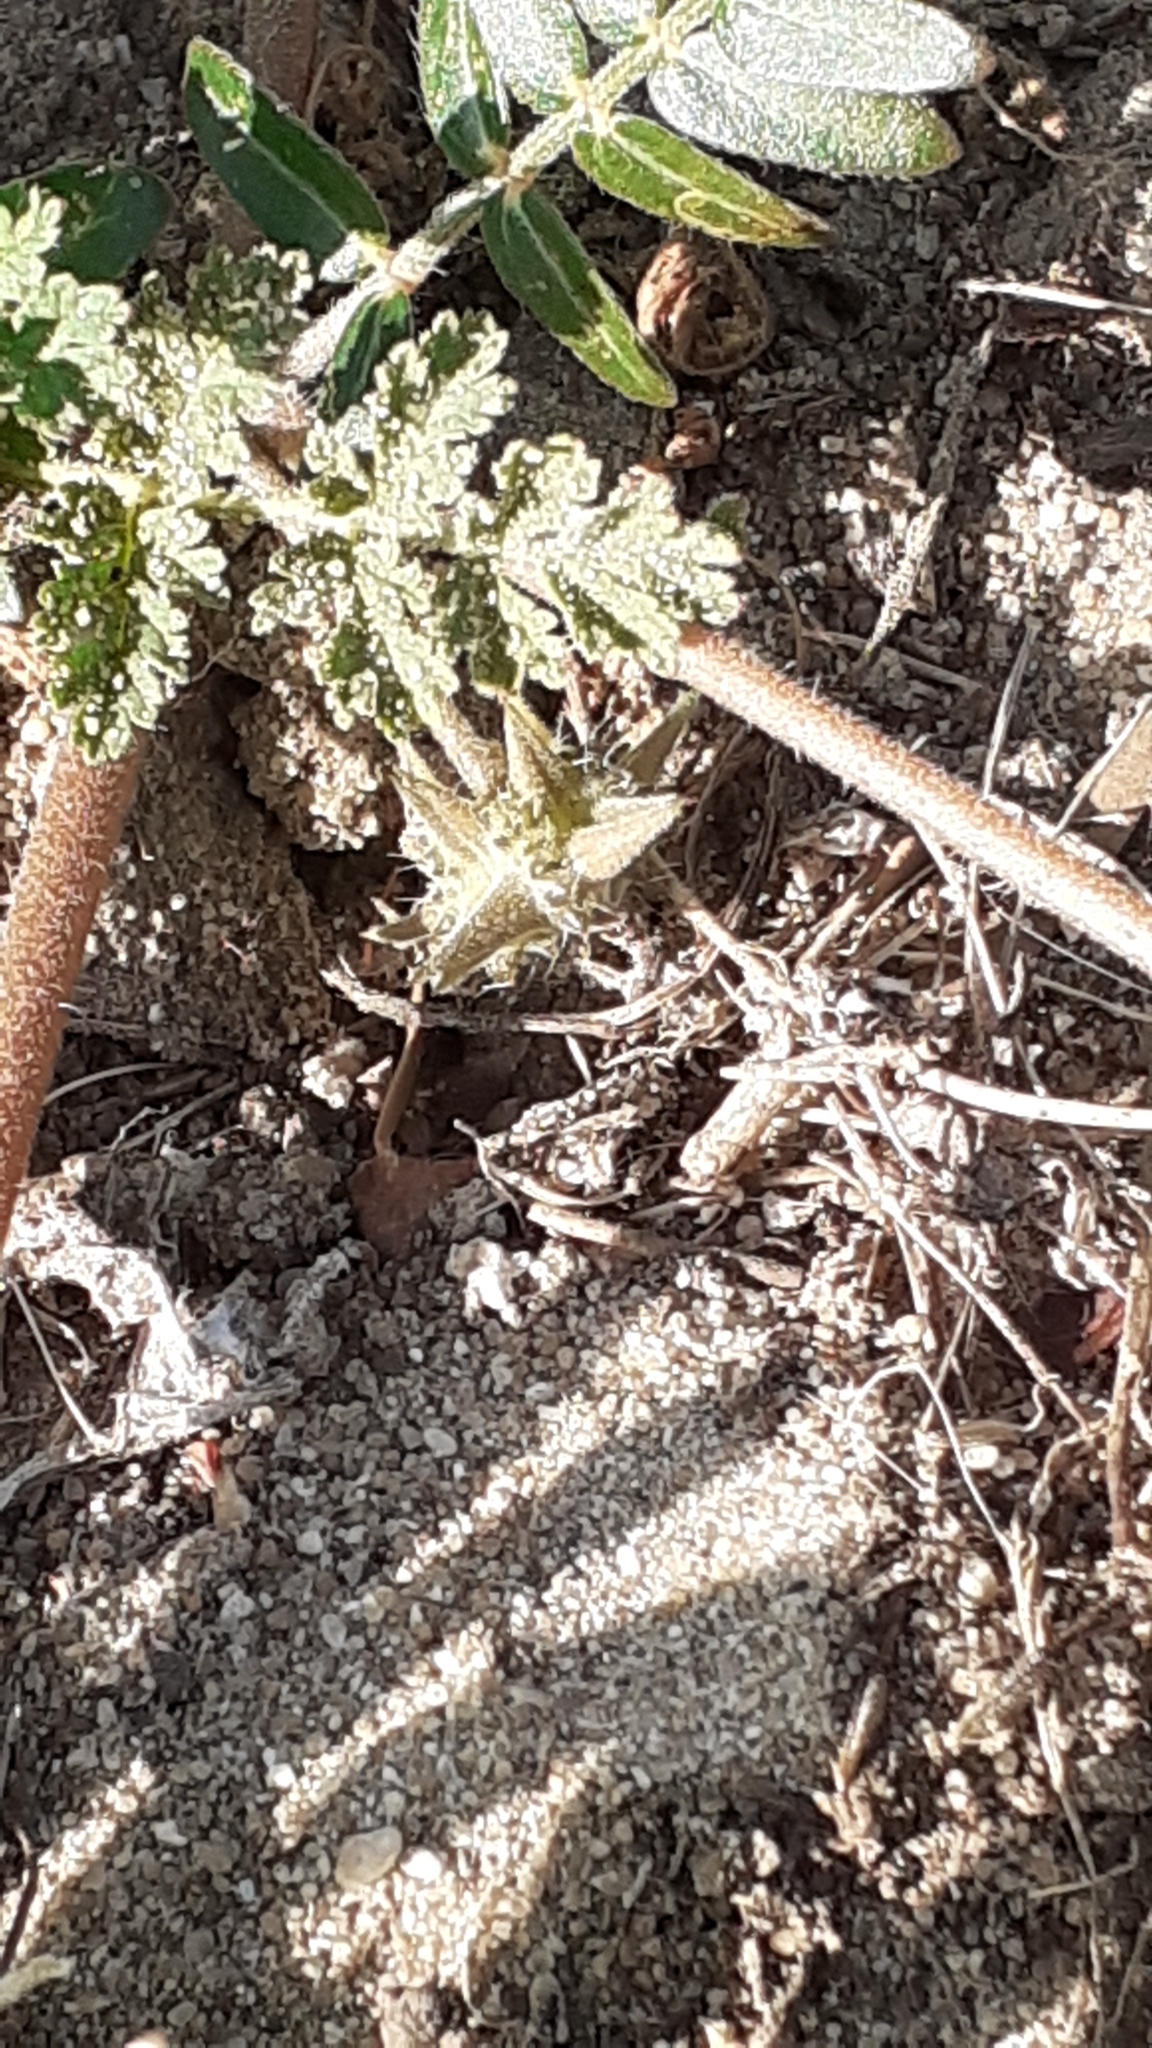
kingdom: Plantae
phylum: Tracheophyta
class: Magnoliopsida
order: Zygophyllales
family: Zygophyllaceae
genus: Tribulus
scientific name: Tribulus terrestris
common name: Puncturevine
